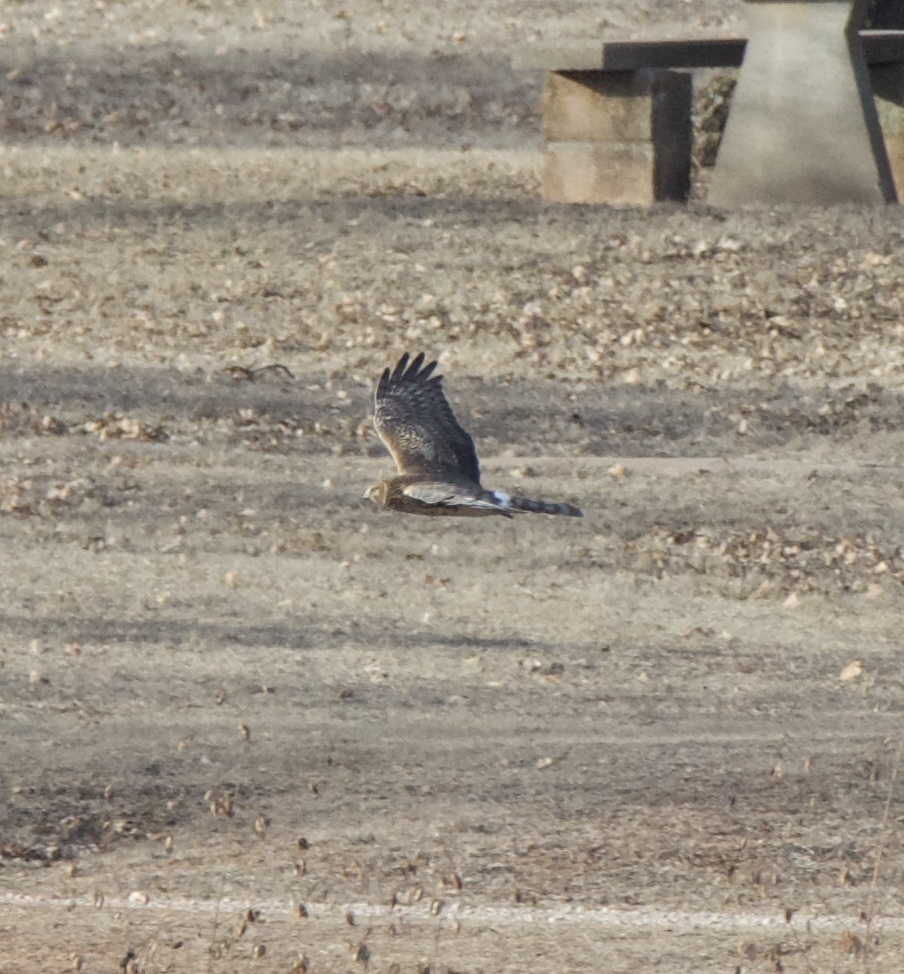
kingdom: Animalia
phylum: Chordata
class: Aves
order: Accipitriformes
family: Accipitridae
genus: Circus
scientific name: Circus cyaneus
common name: Hen harrier
